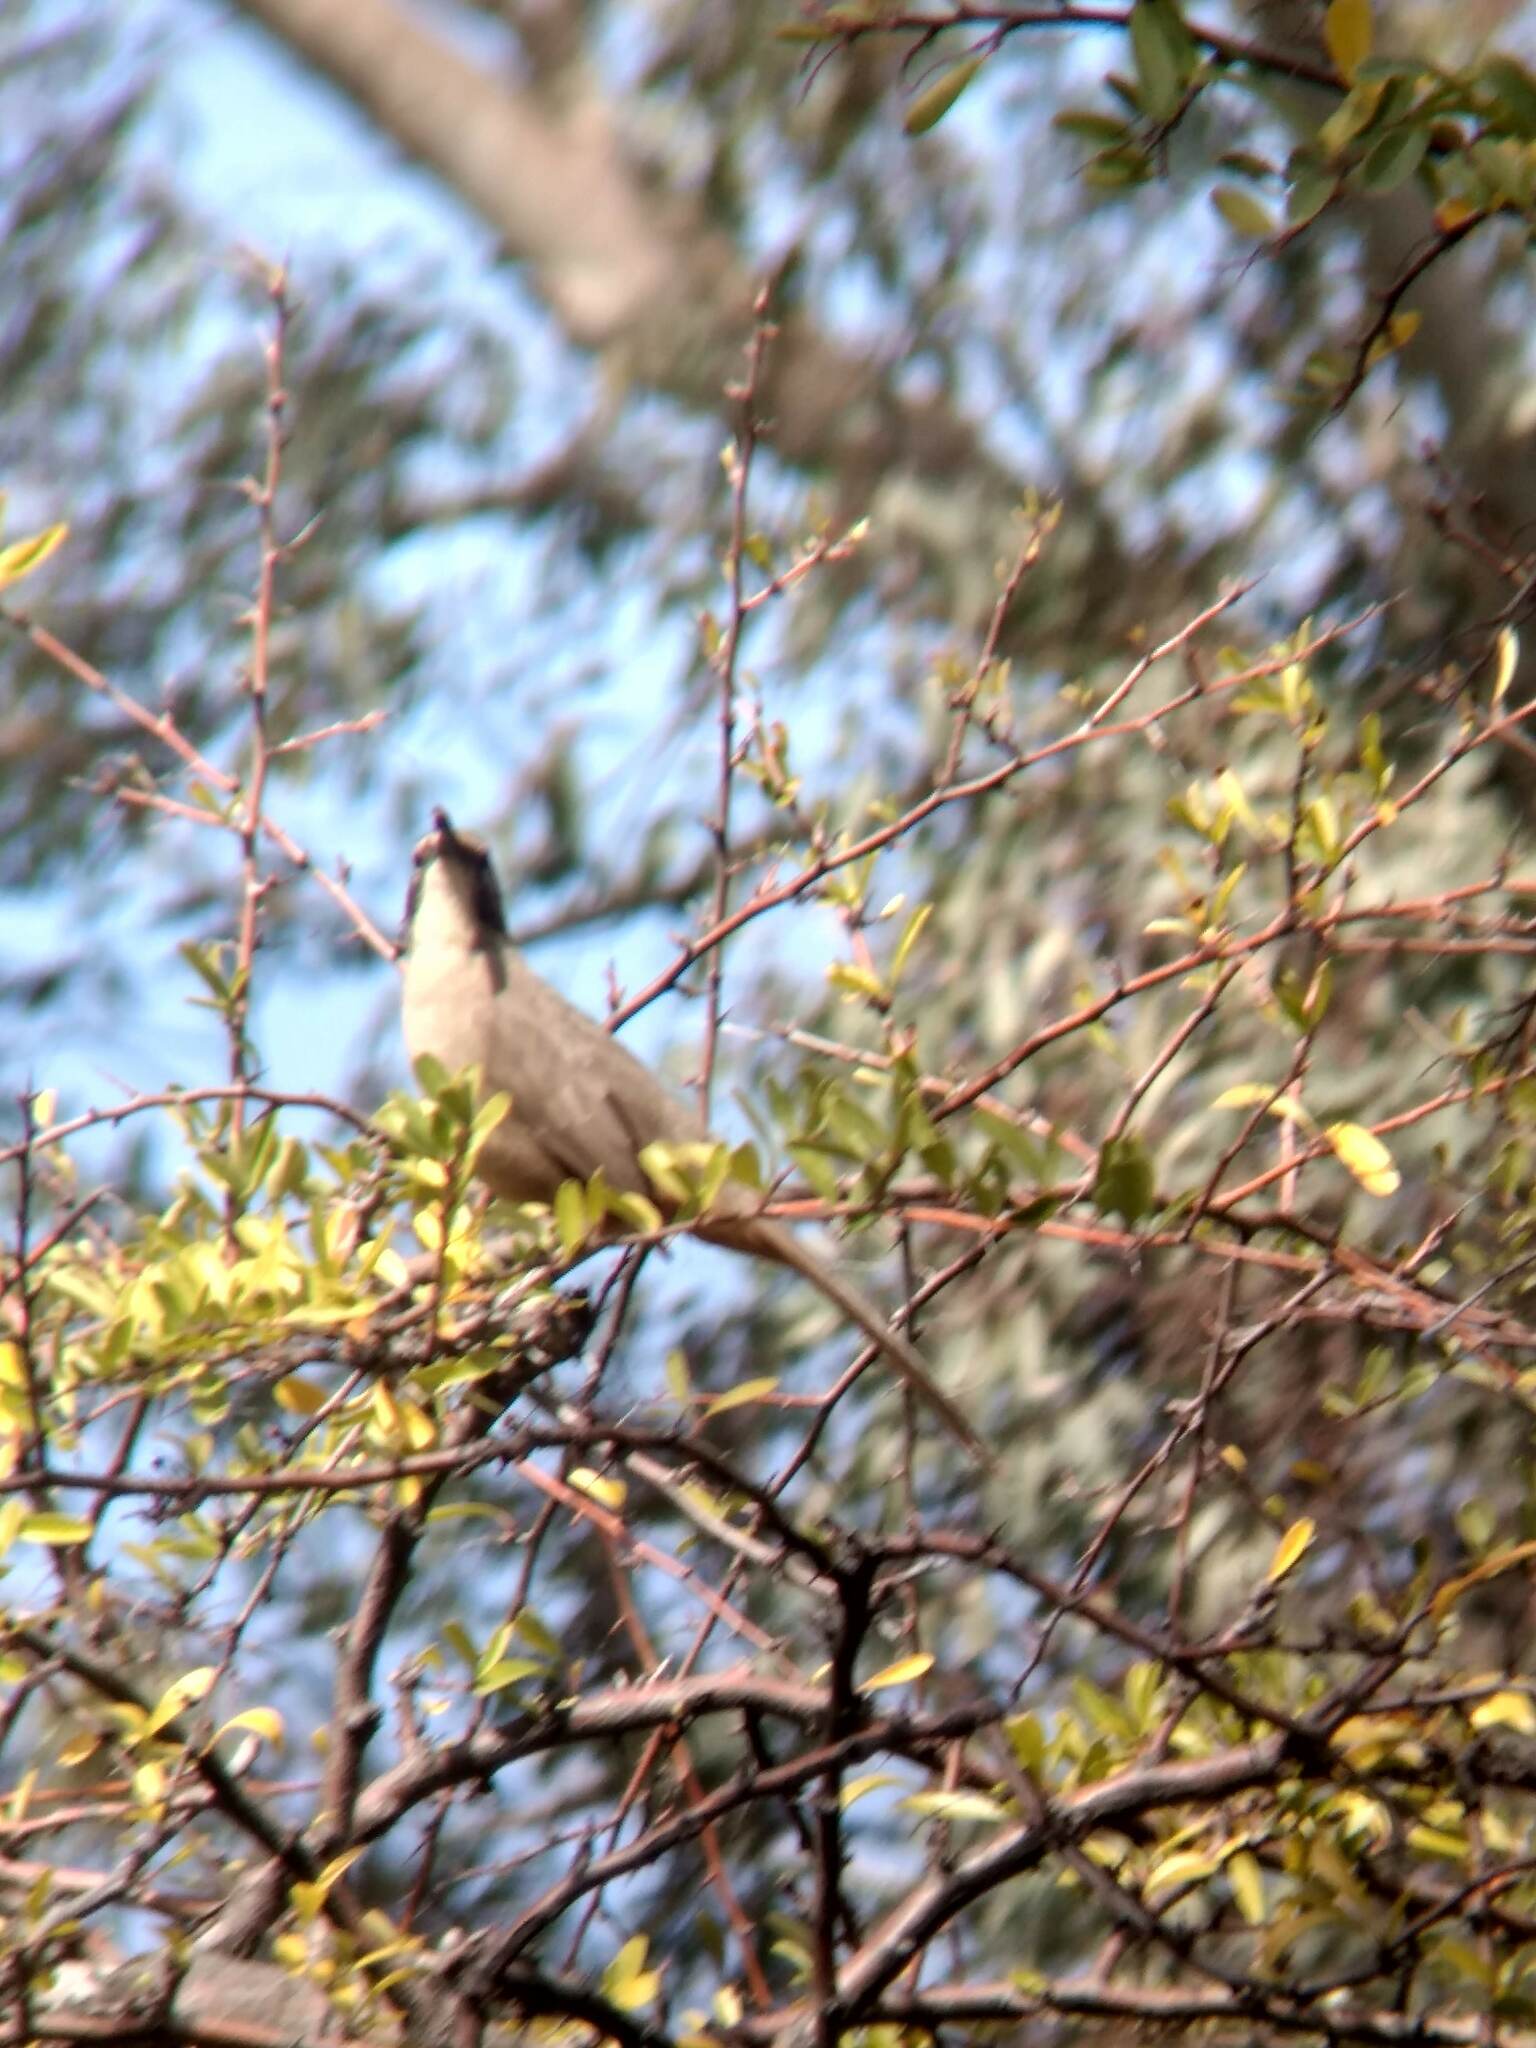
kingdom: Animalia
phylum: Chordata
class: Aves
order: Passeriformes
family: Mimidae
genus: Toxostoma
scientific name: Toxostoma redivivum
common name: California thrasher
